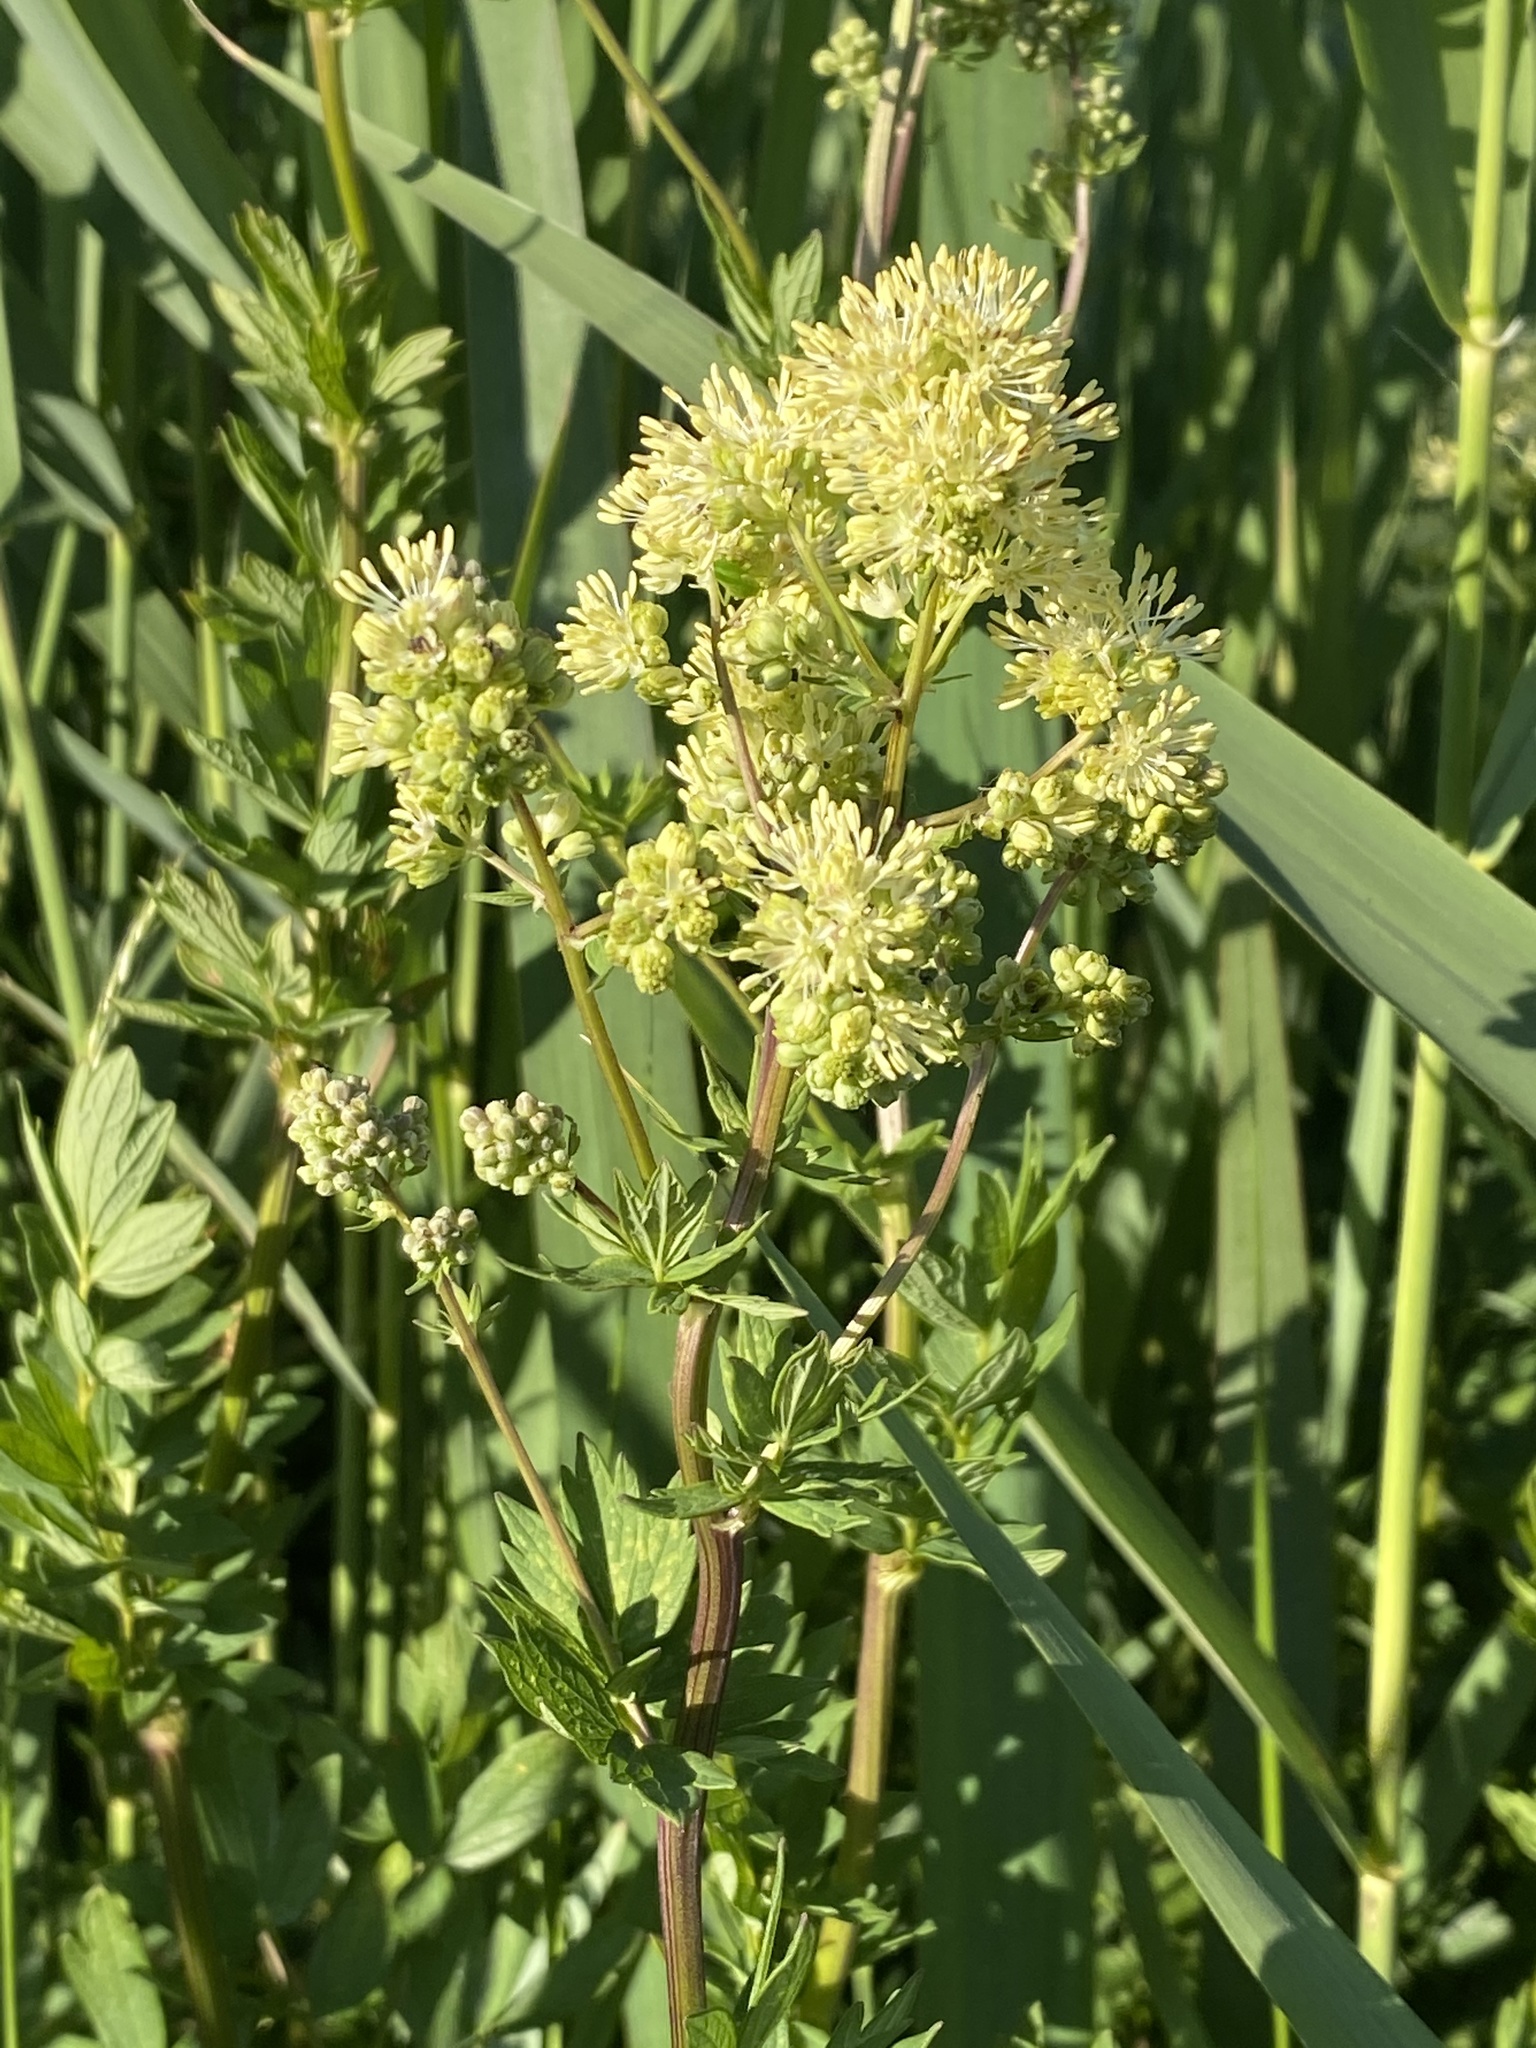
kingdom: Plantae
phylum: Tracheophyta
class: Magnoliopsida
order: Ranunculales
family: Ranunculaceae
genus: Thalictrum
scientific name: Thalictrum flavum
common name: Common meadow-rue
